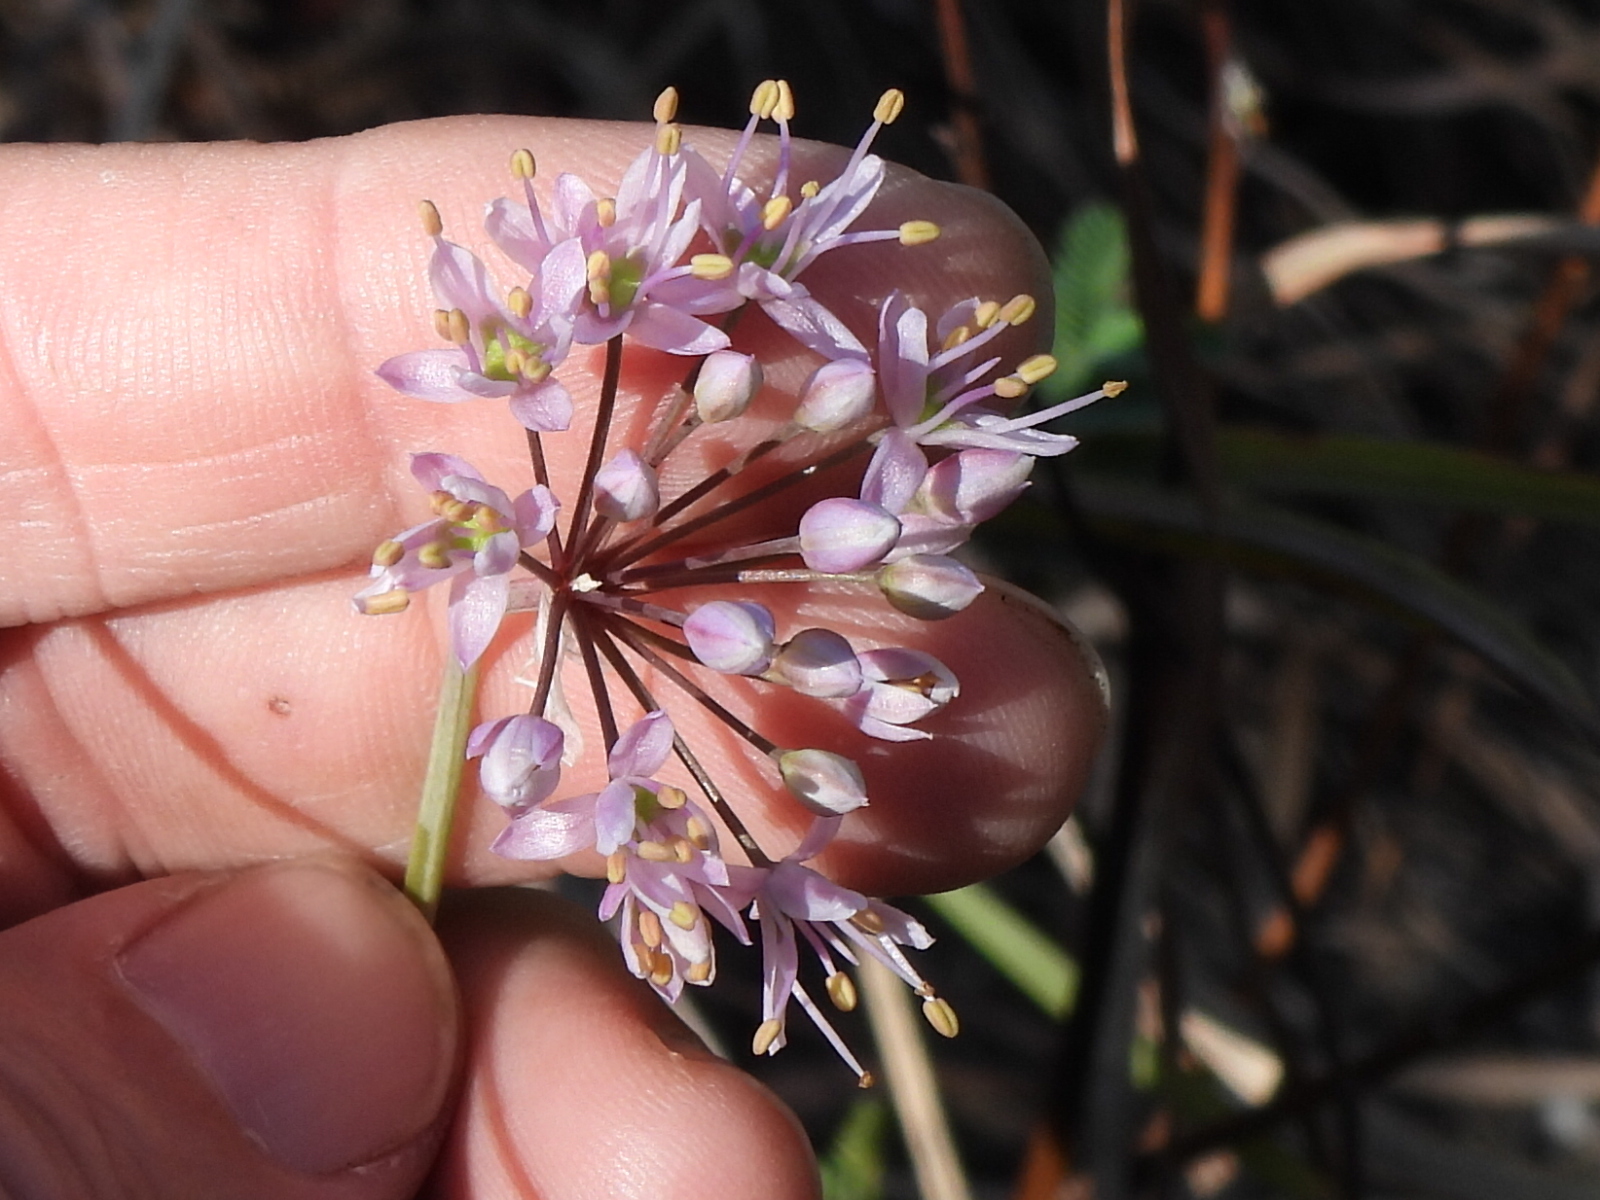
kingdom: Plantae
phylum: Tracheophyta
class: Liliopsida
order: Asparagales
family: Amaryllidaceae
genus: Allium
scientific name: Allium stellatum
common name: Autumn onion
